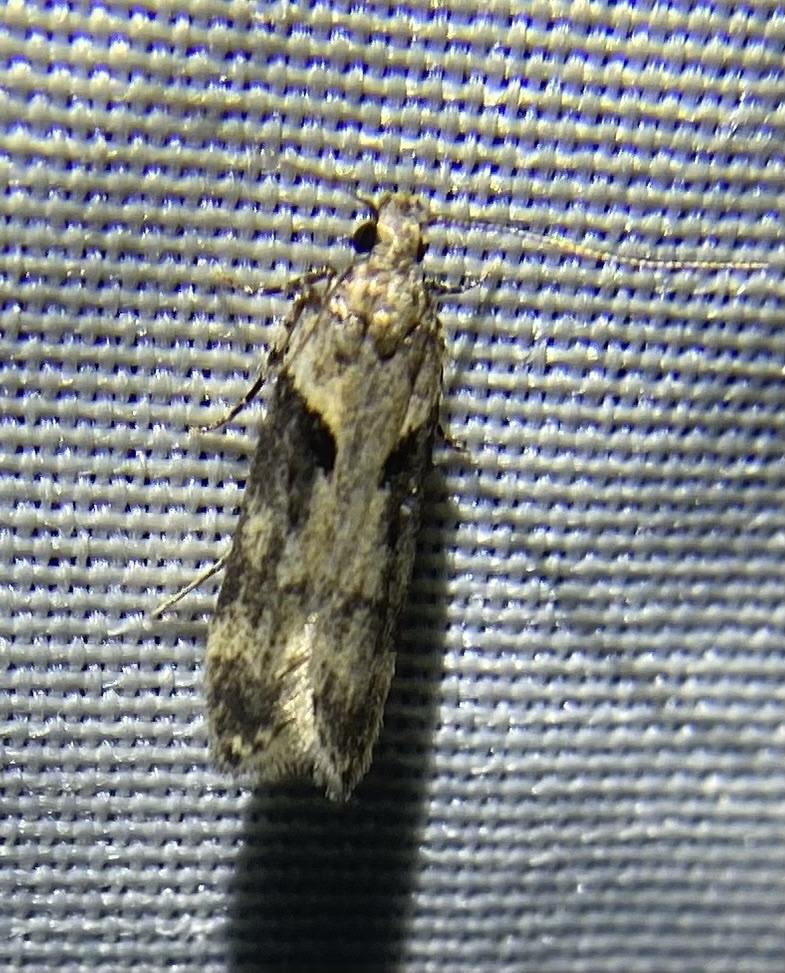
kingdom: Animalia
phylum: Arthropoda
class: Insecta
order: Lepidoptera
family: Gelechiidae
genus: Chionodes
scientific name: Chionodes mediofuscella
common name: Black-smudged chionodes moth
